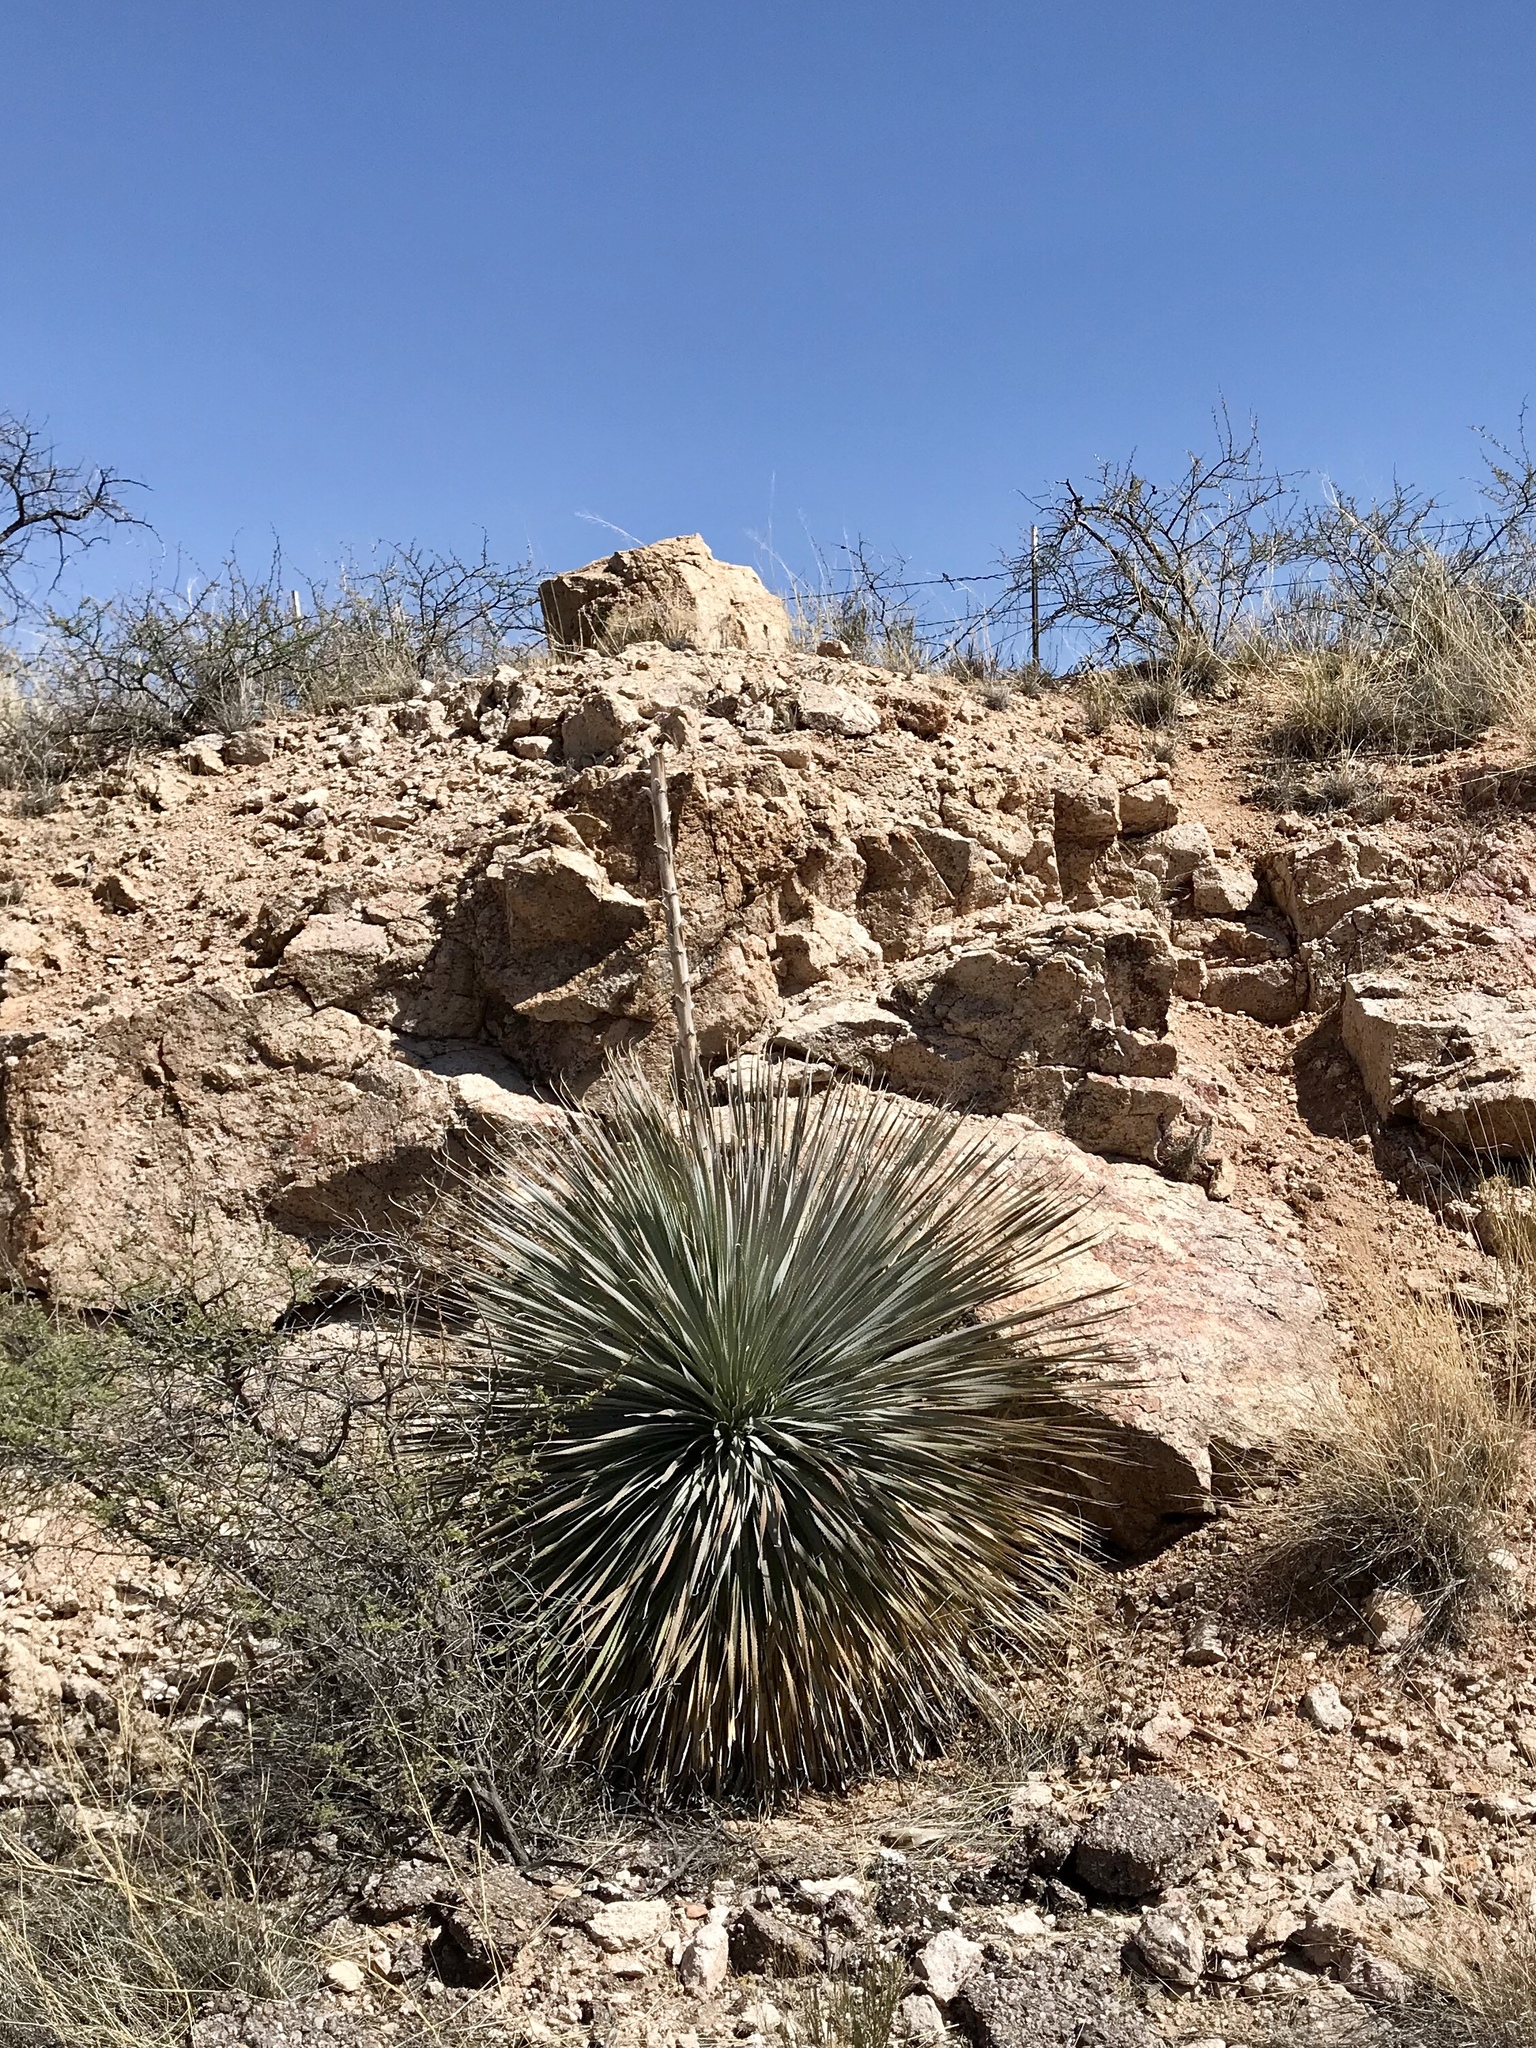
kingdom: Plantae
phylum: Tracheophyta
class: Liliopsida
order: Asparagales
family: Asparagaceae
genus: Dasylirion
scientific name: Dasylirion wheeleri
